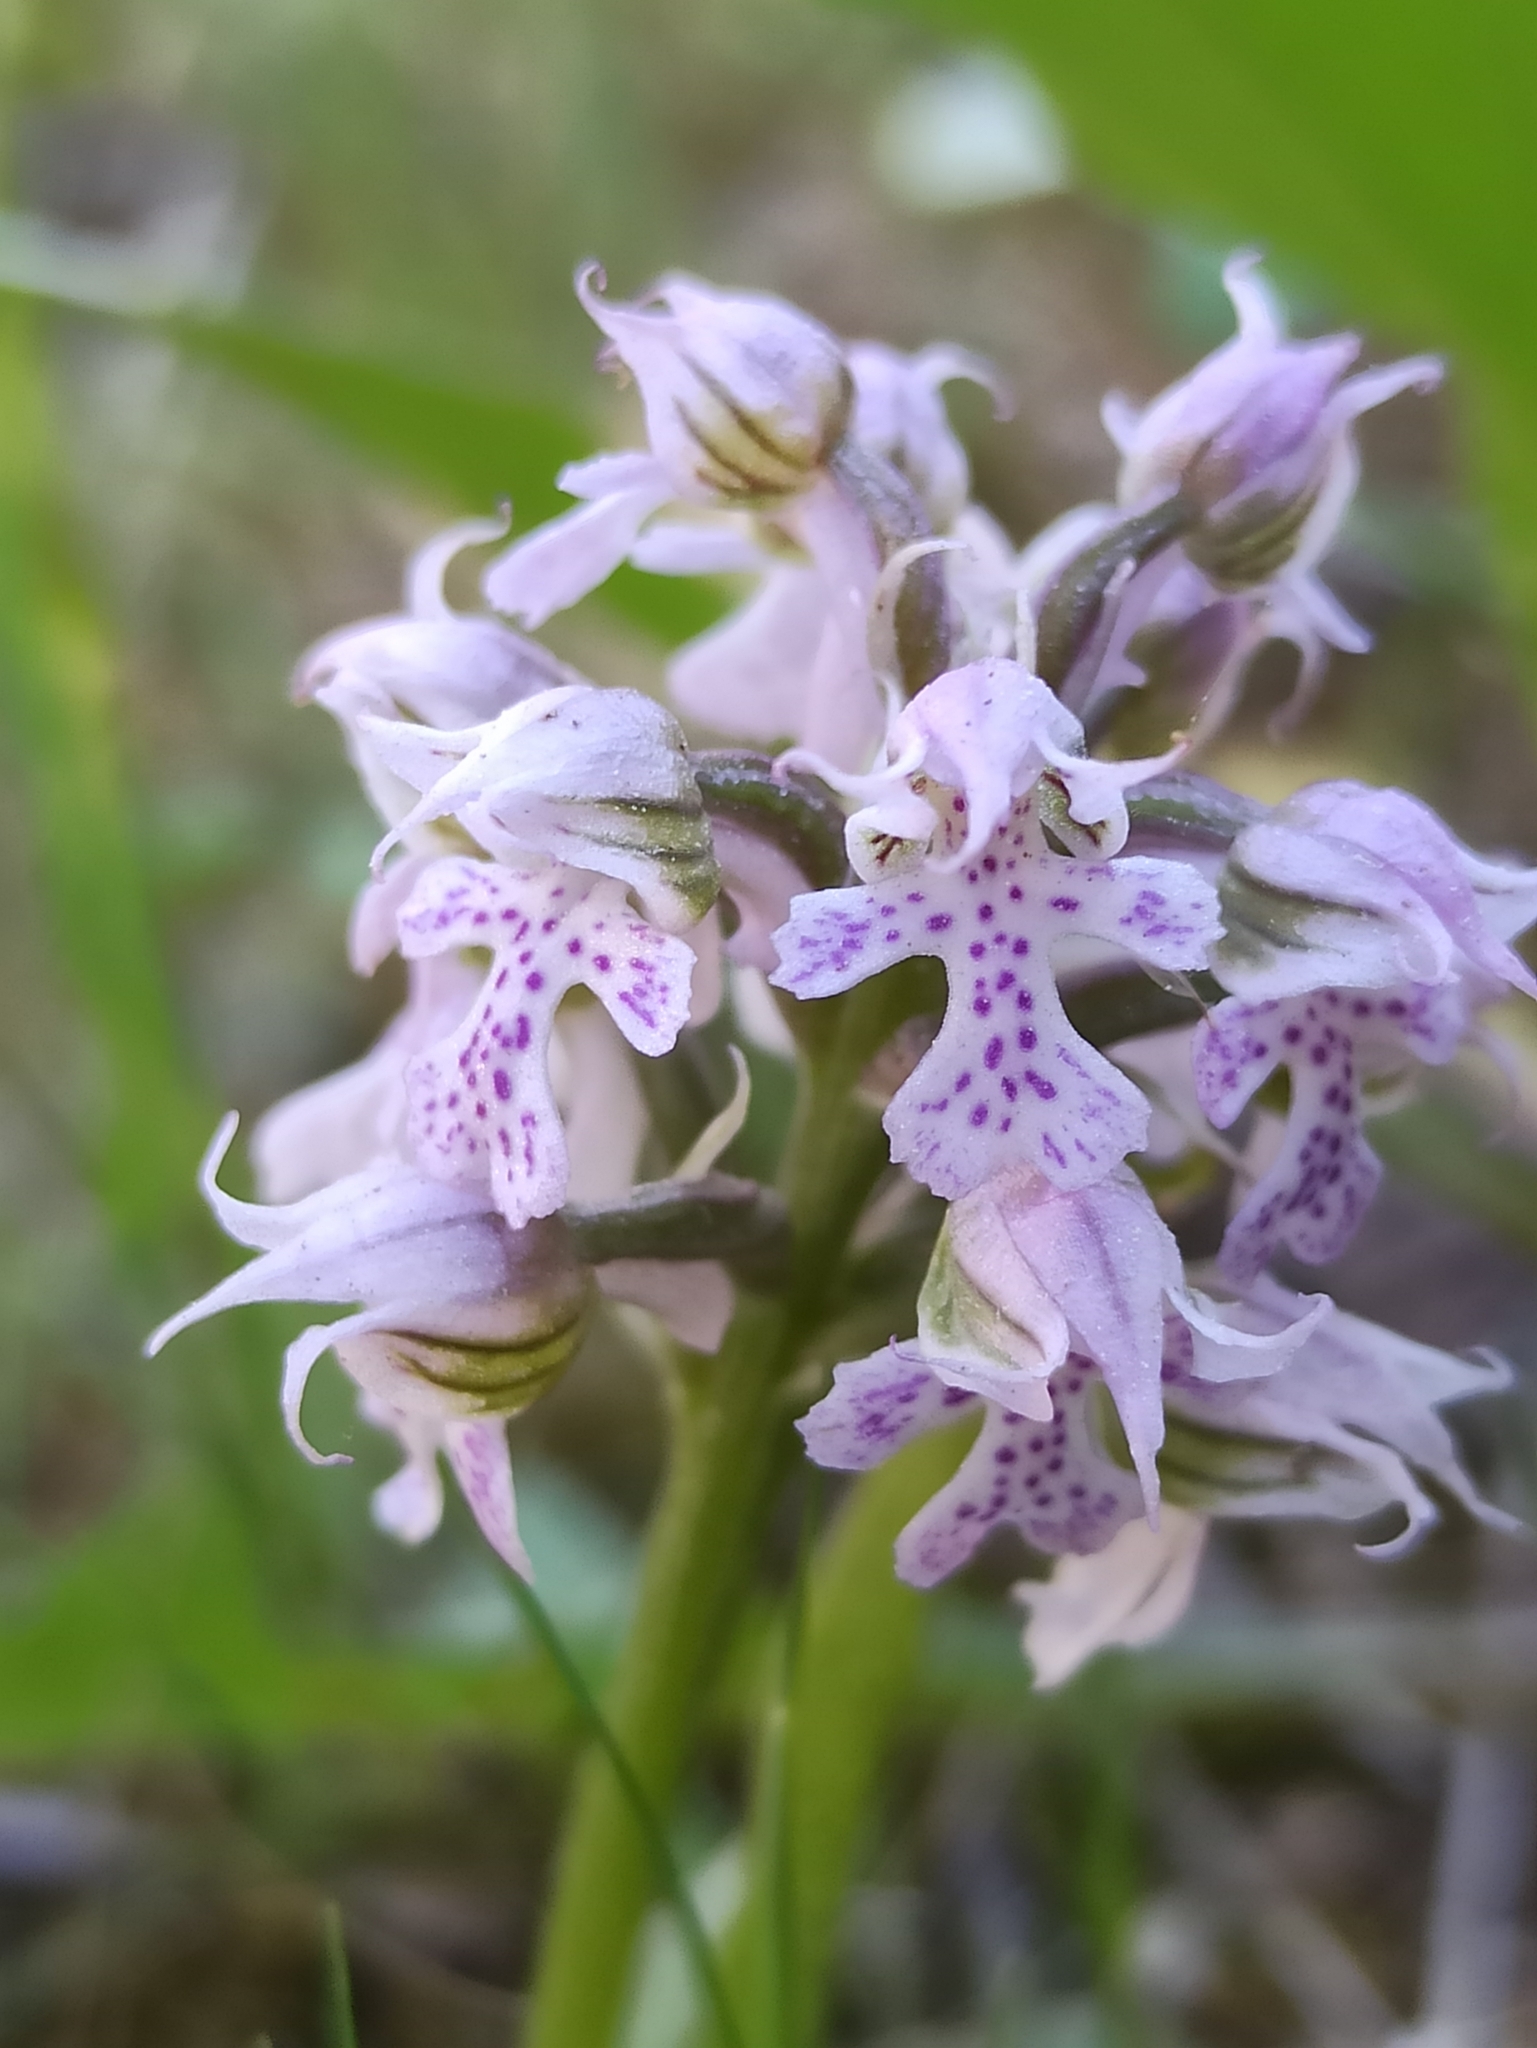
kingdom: Plantae
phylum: Tracheophyta
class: Liliopsida
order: Asparagales
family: Orchidaceae
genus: Neotinea
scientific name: Neotinea lactea
